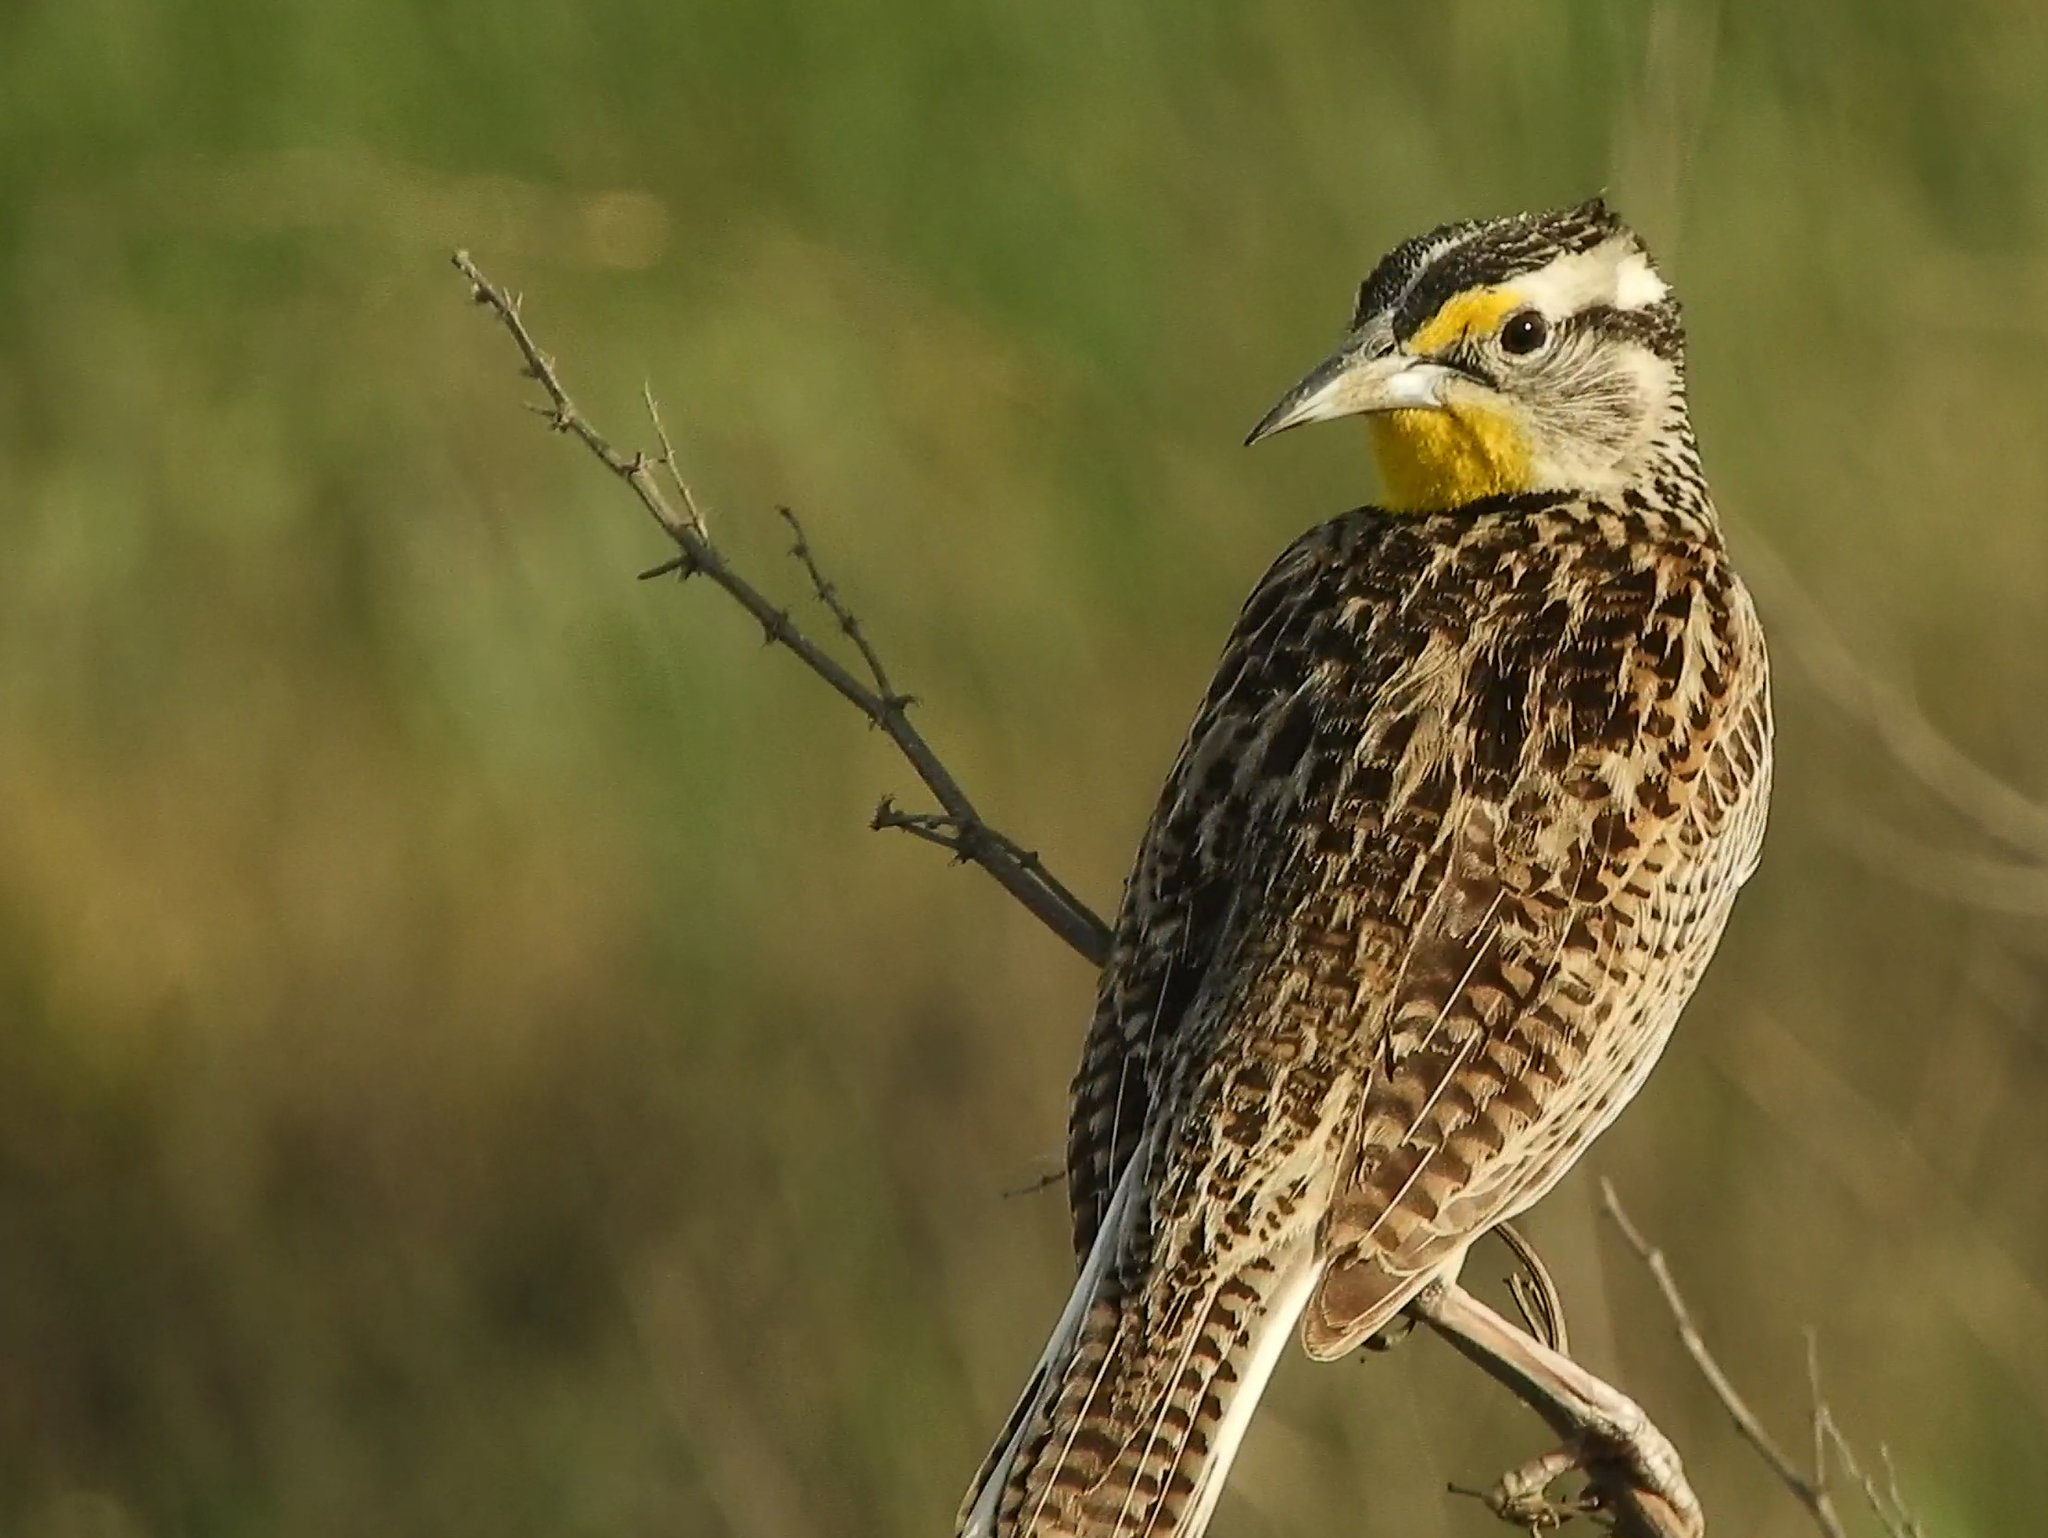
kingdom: Animalia
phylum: Chordata
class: Aves
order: Passeriformes
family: Icteridae
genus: Sturnella
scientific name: Sturnella neglecta
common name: Western meadowlark
